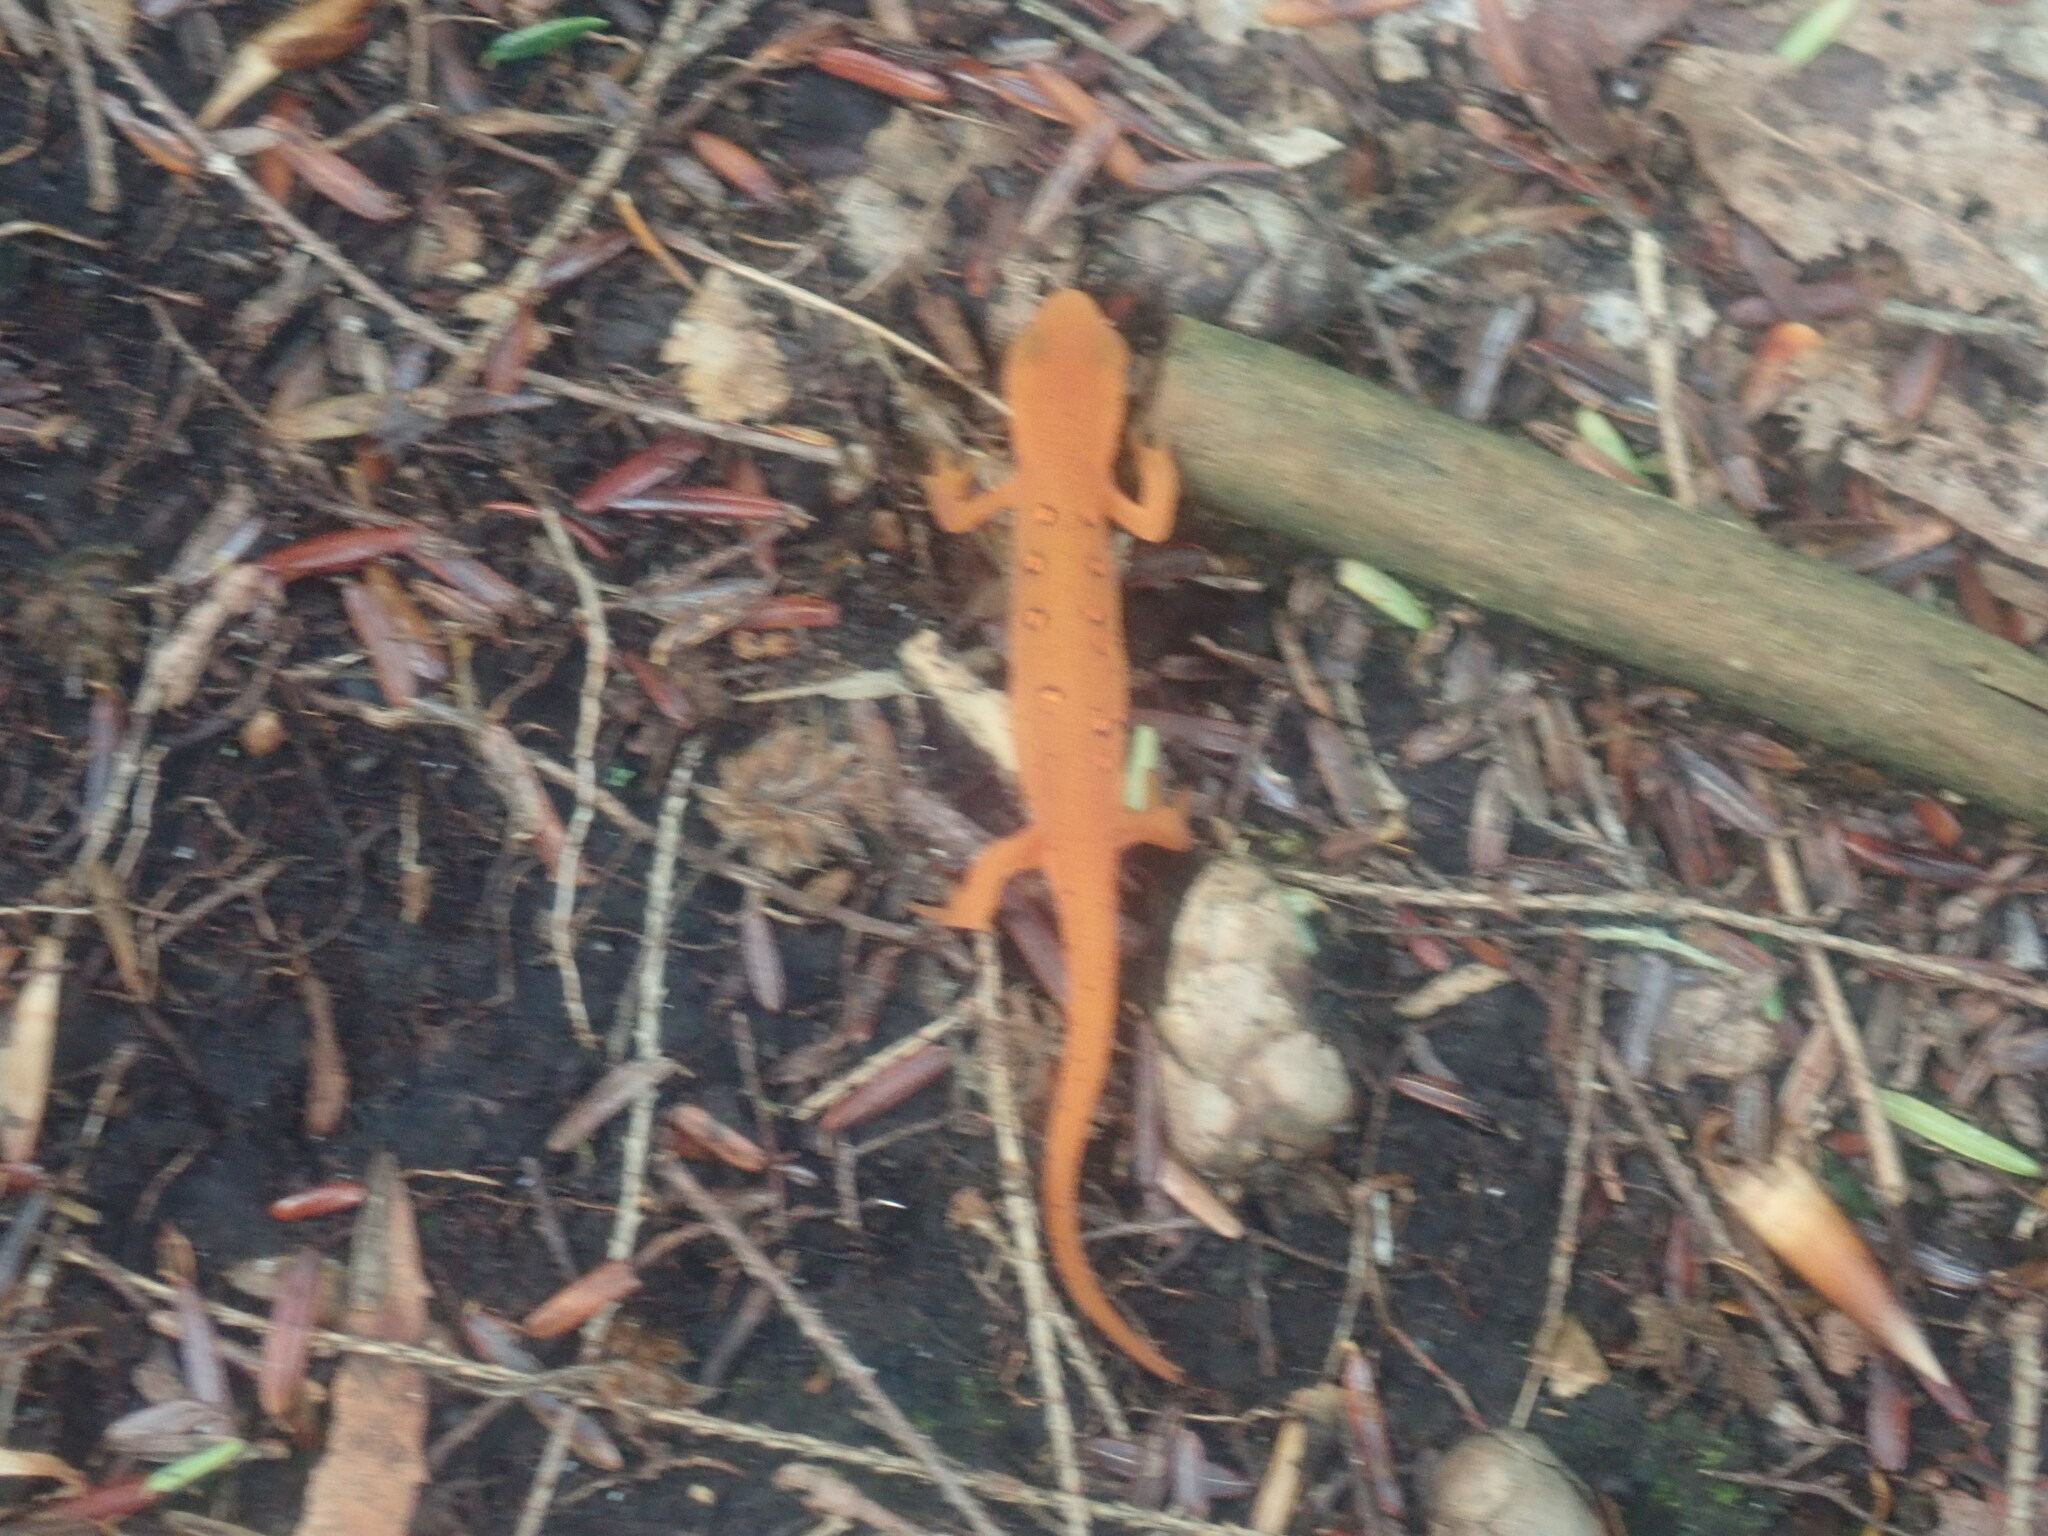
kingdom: Animalia
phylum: Chordata
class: Amphibia
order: Caudata
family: Salamandridae
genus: Notophthalmus
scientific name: Notophthalmus viridescens
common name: Eastern newt
